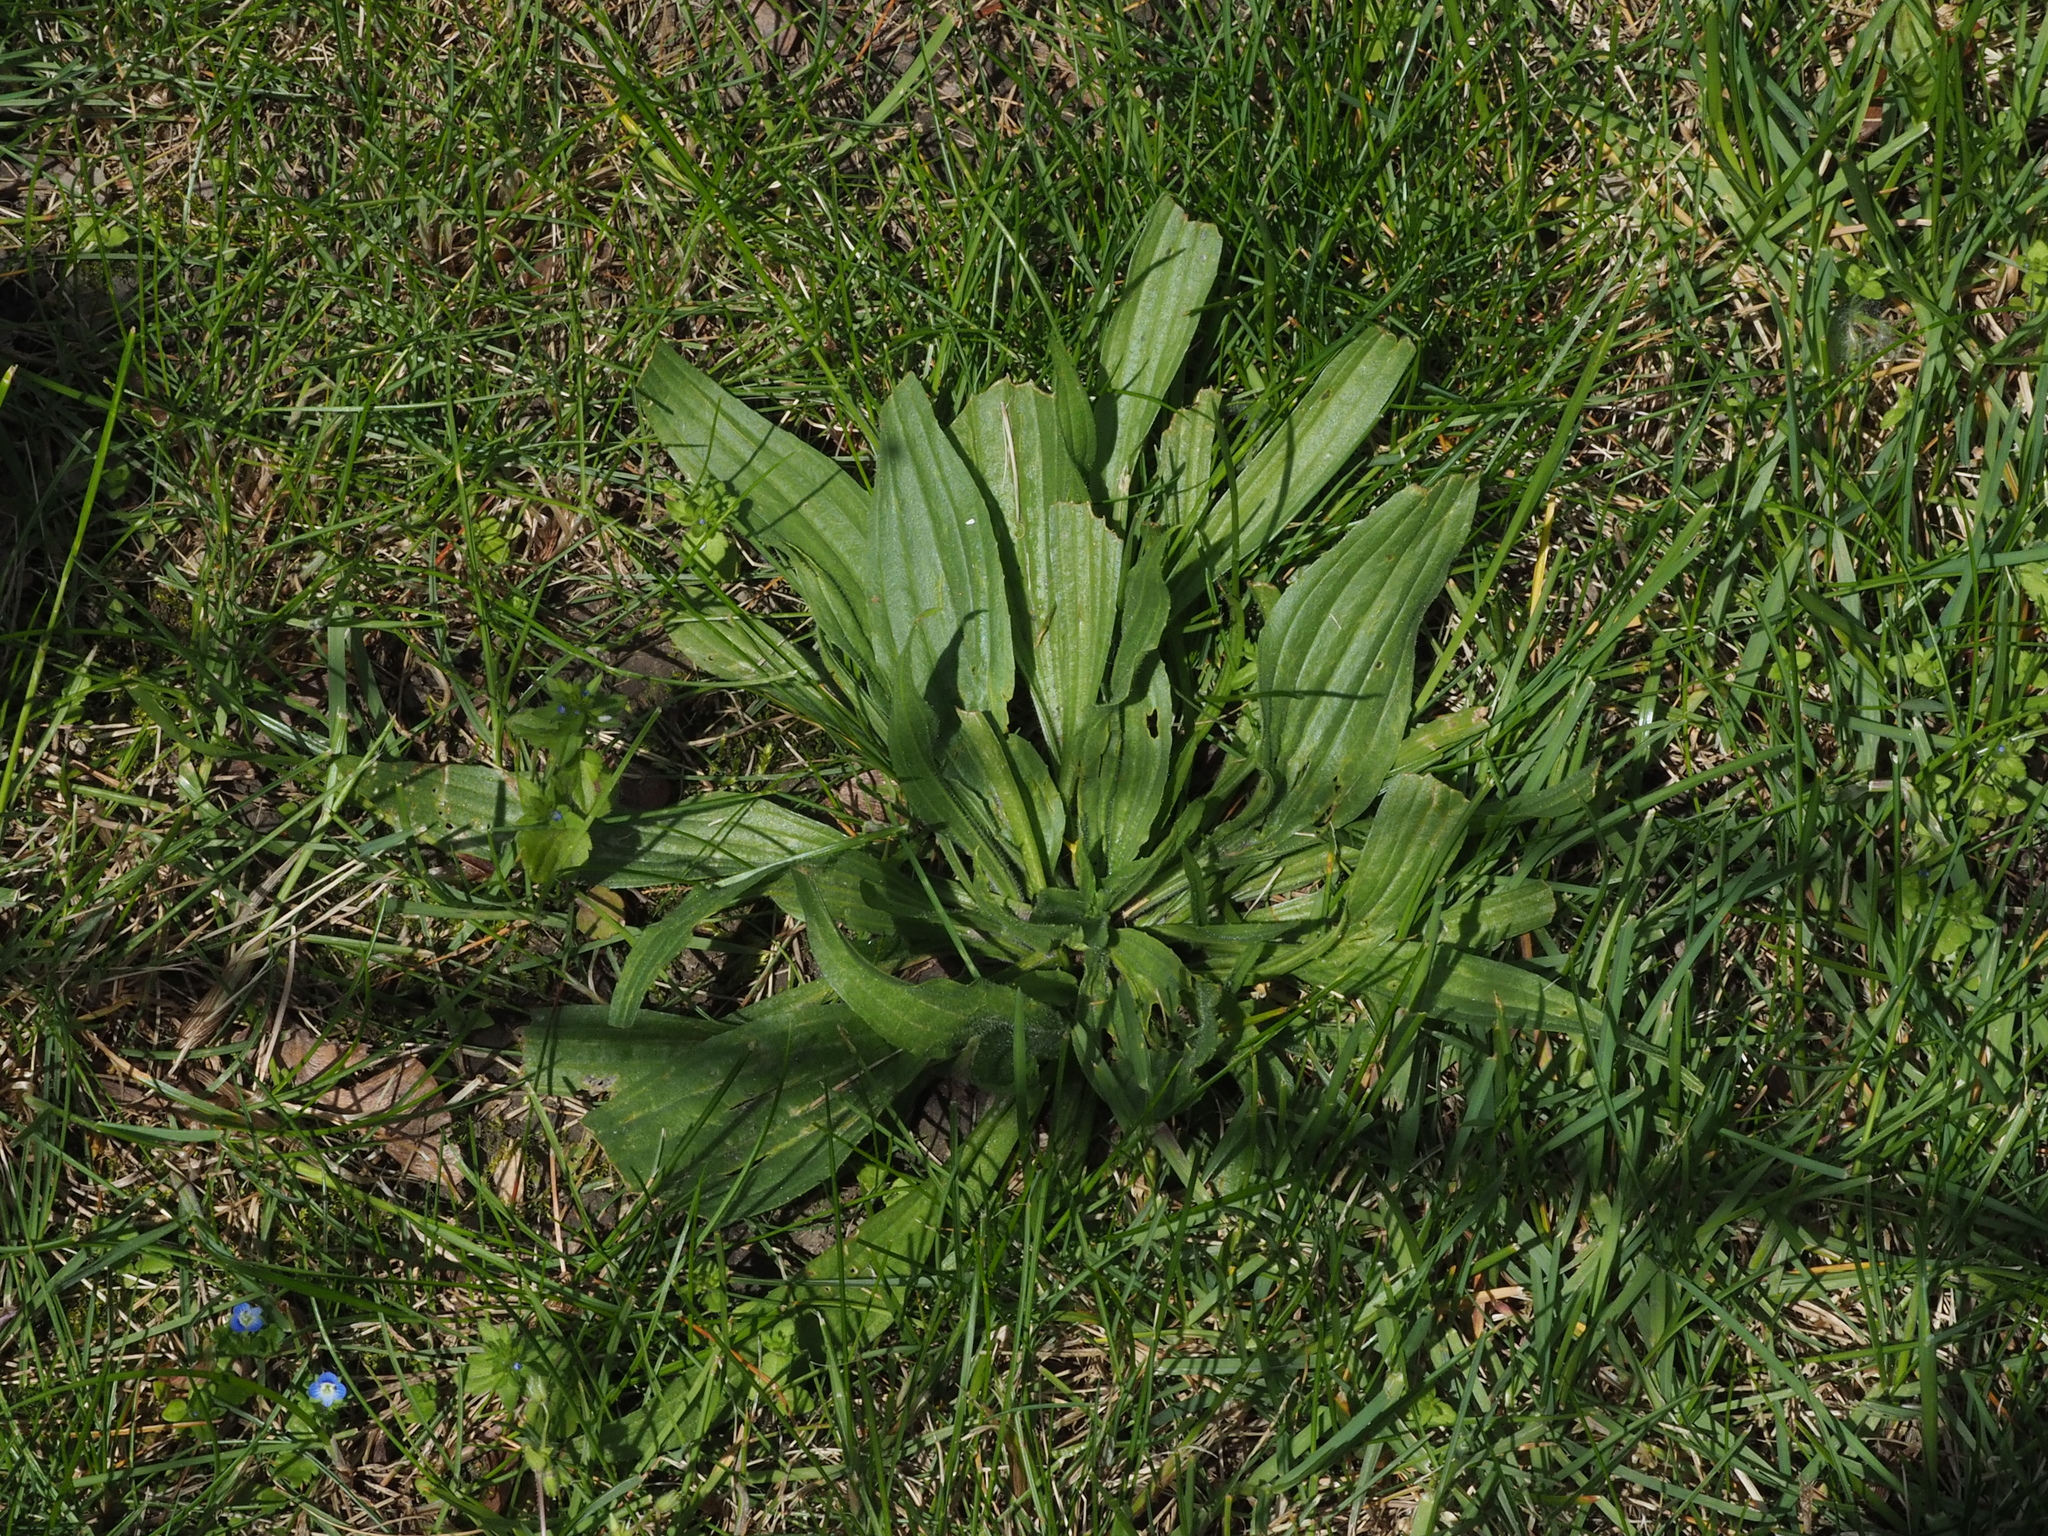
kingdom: Plantae
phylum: Tracheophyta
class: Magnoliopsida
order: Lamiales
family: Plantaginaceae
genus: Plantago
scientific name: Plantago lanceolata
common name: Ribwort plantain
